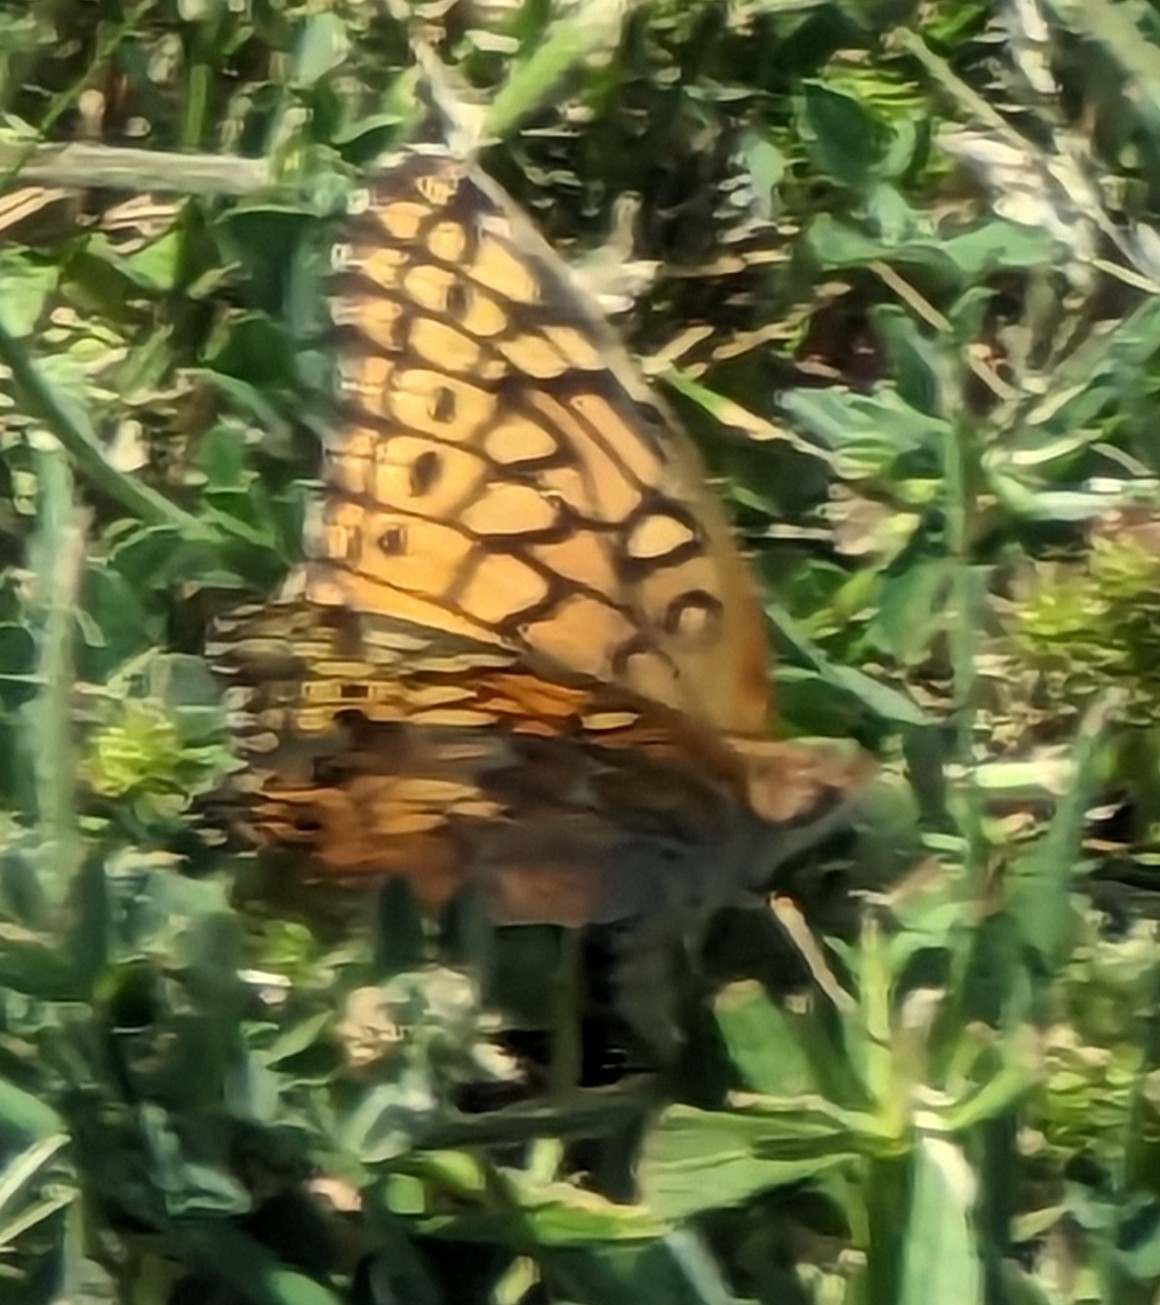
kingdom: Animalia
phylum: Arthropoda
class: Insecta
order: Lepidoptera
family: Nymphalidae
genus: Euptoieta
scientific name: Euptoieta claudia
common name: Variegated fritillary
